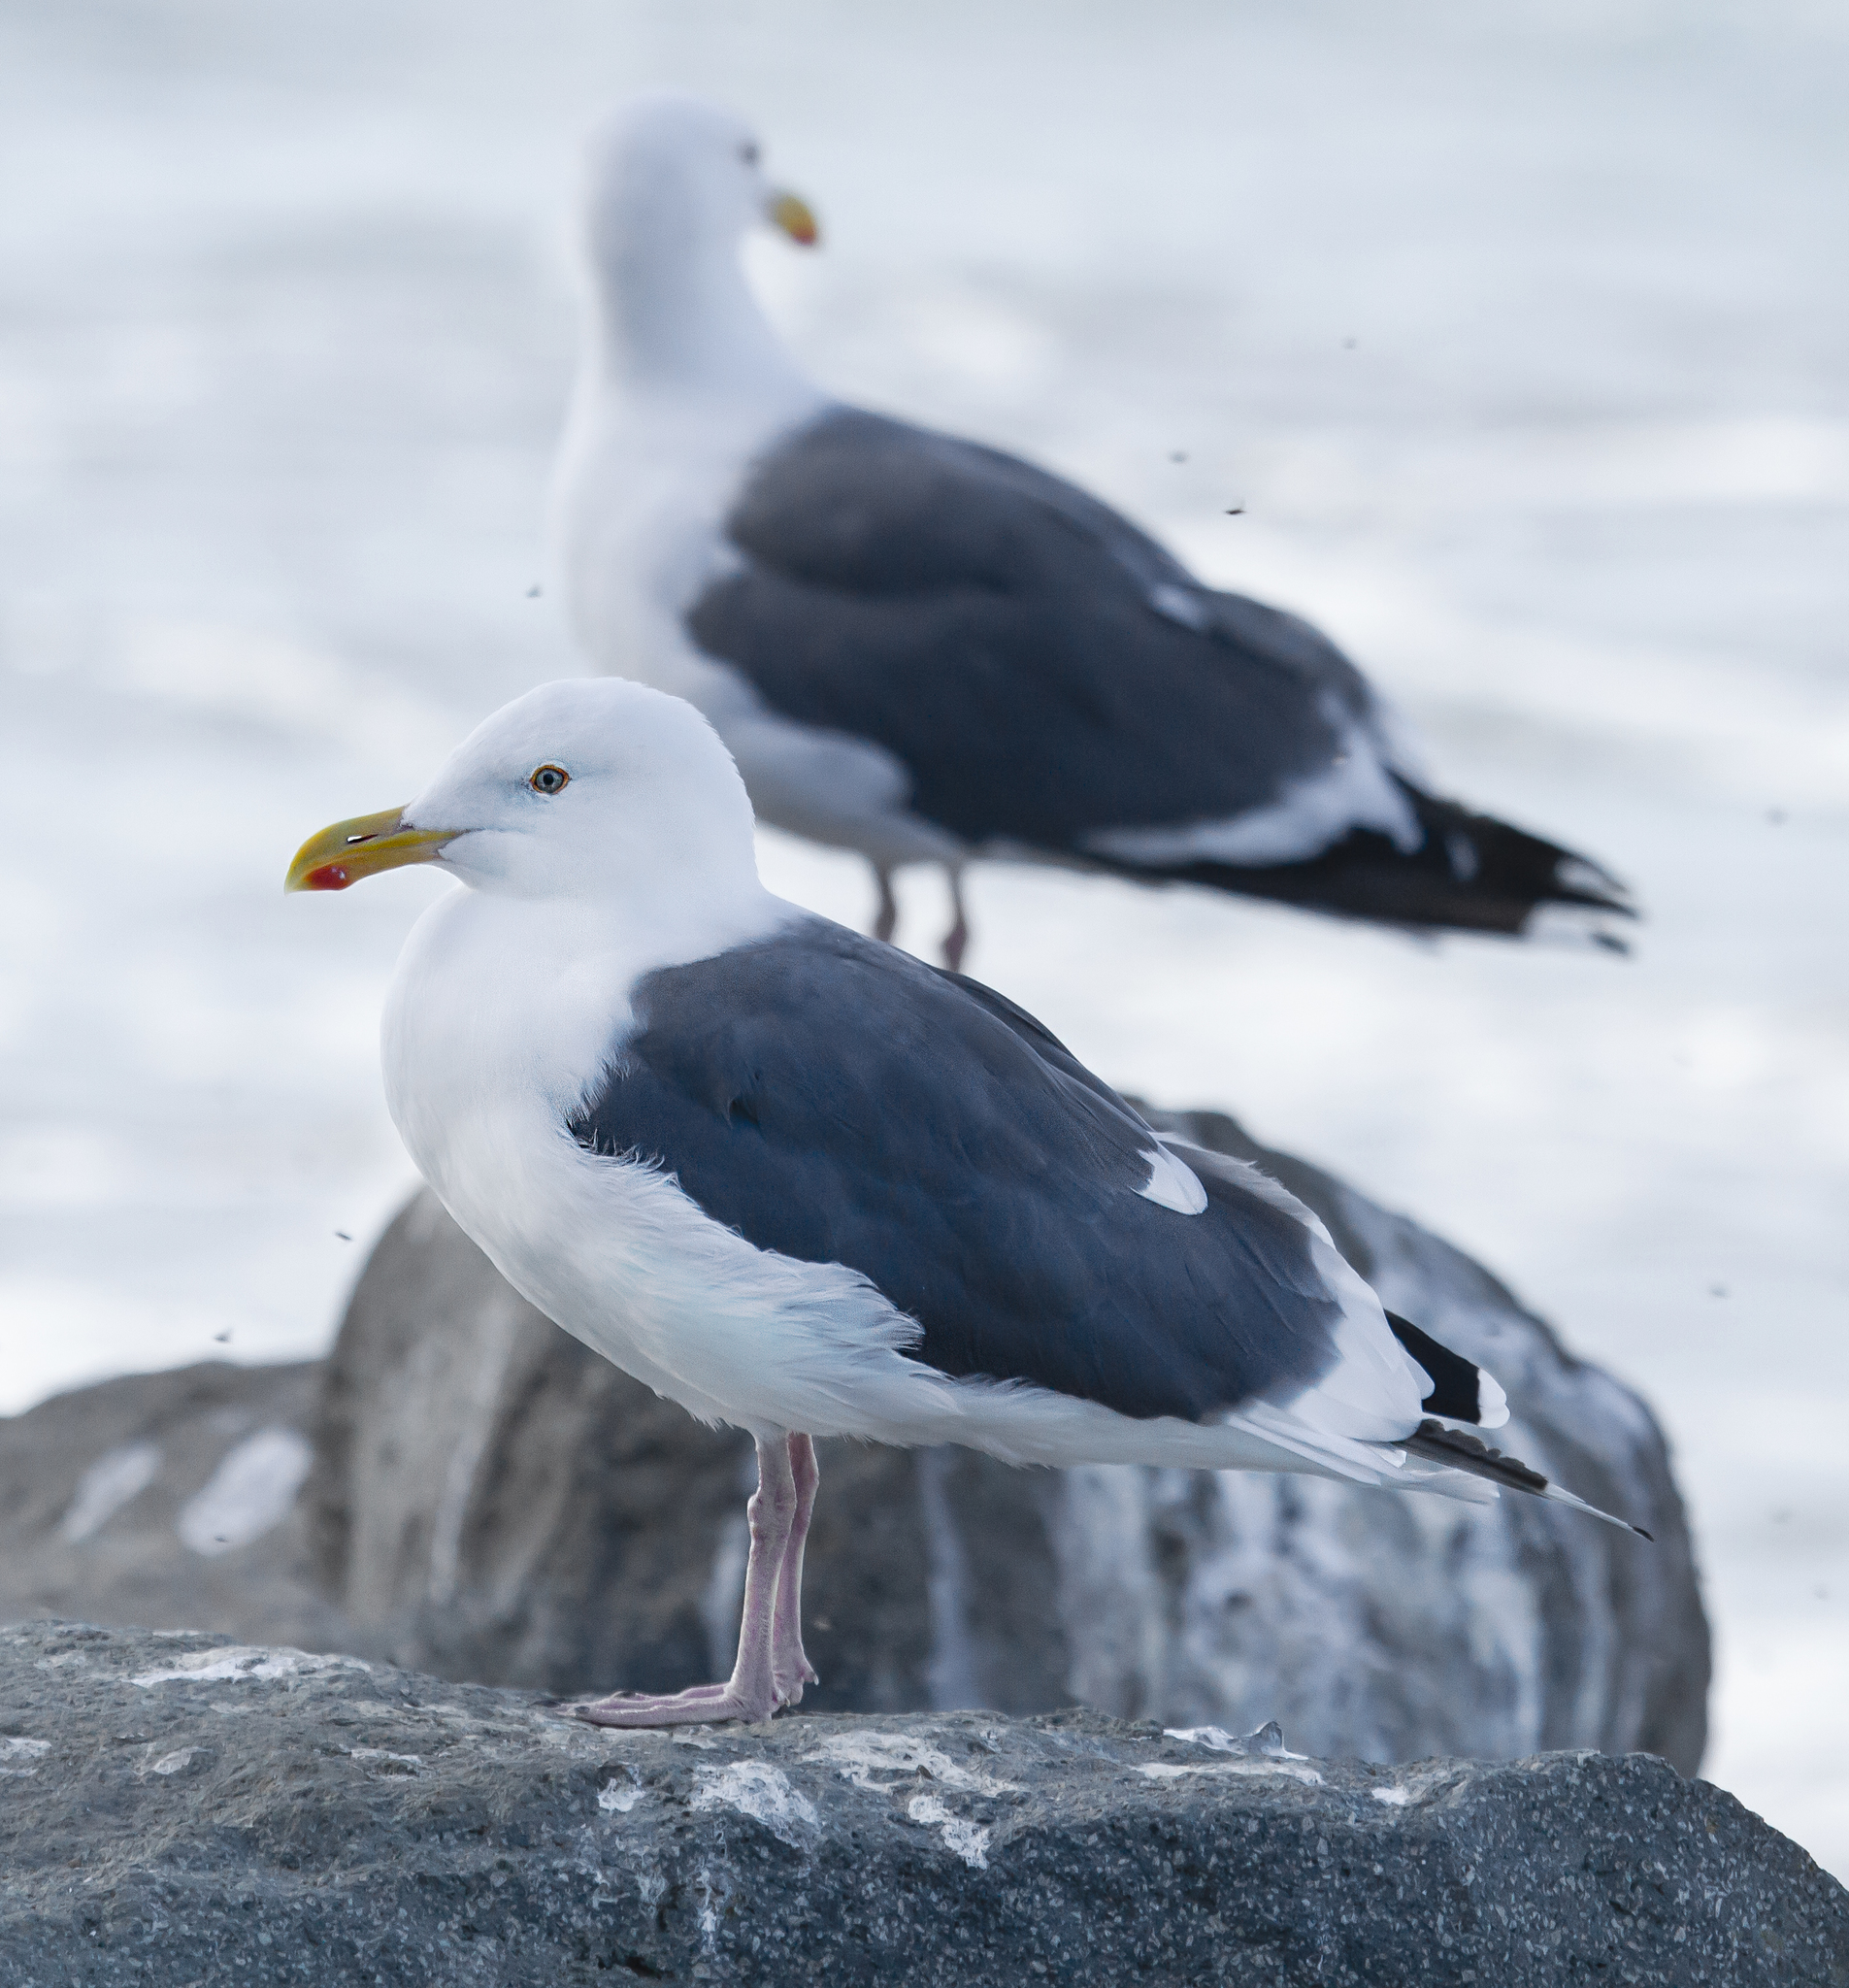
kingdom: Animalia
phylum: Chordata
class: Aves
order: Charadriiformes
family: Laridae
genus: Larus
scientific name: Larus occidentalis
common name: Western gull
